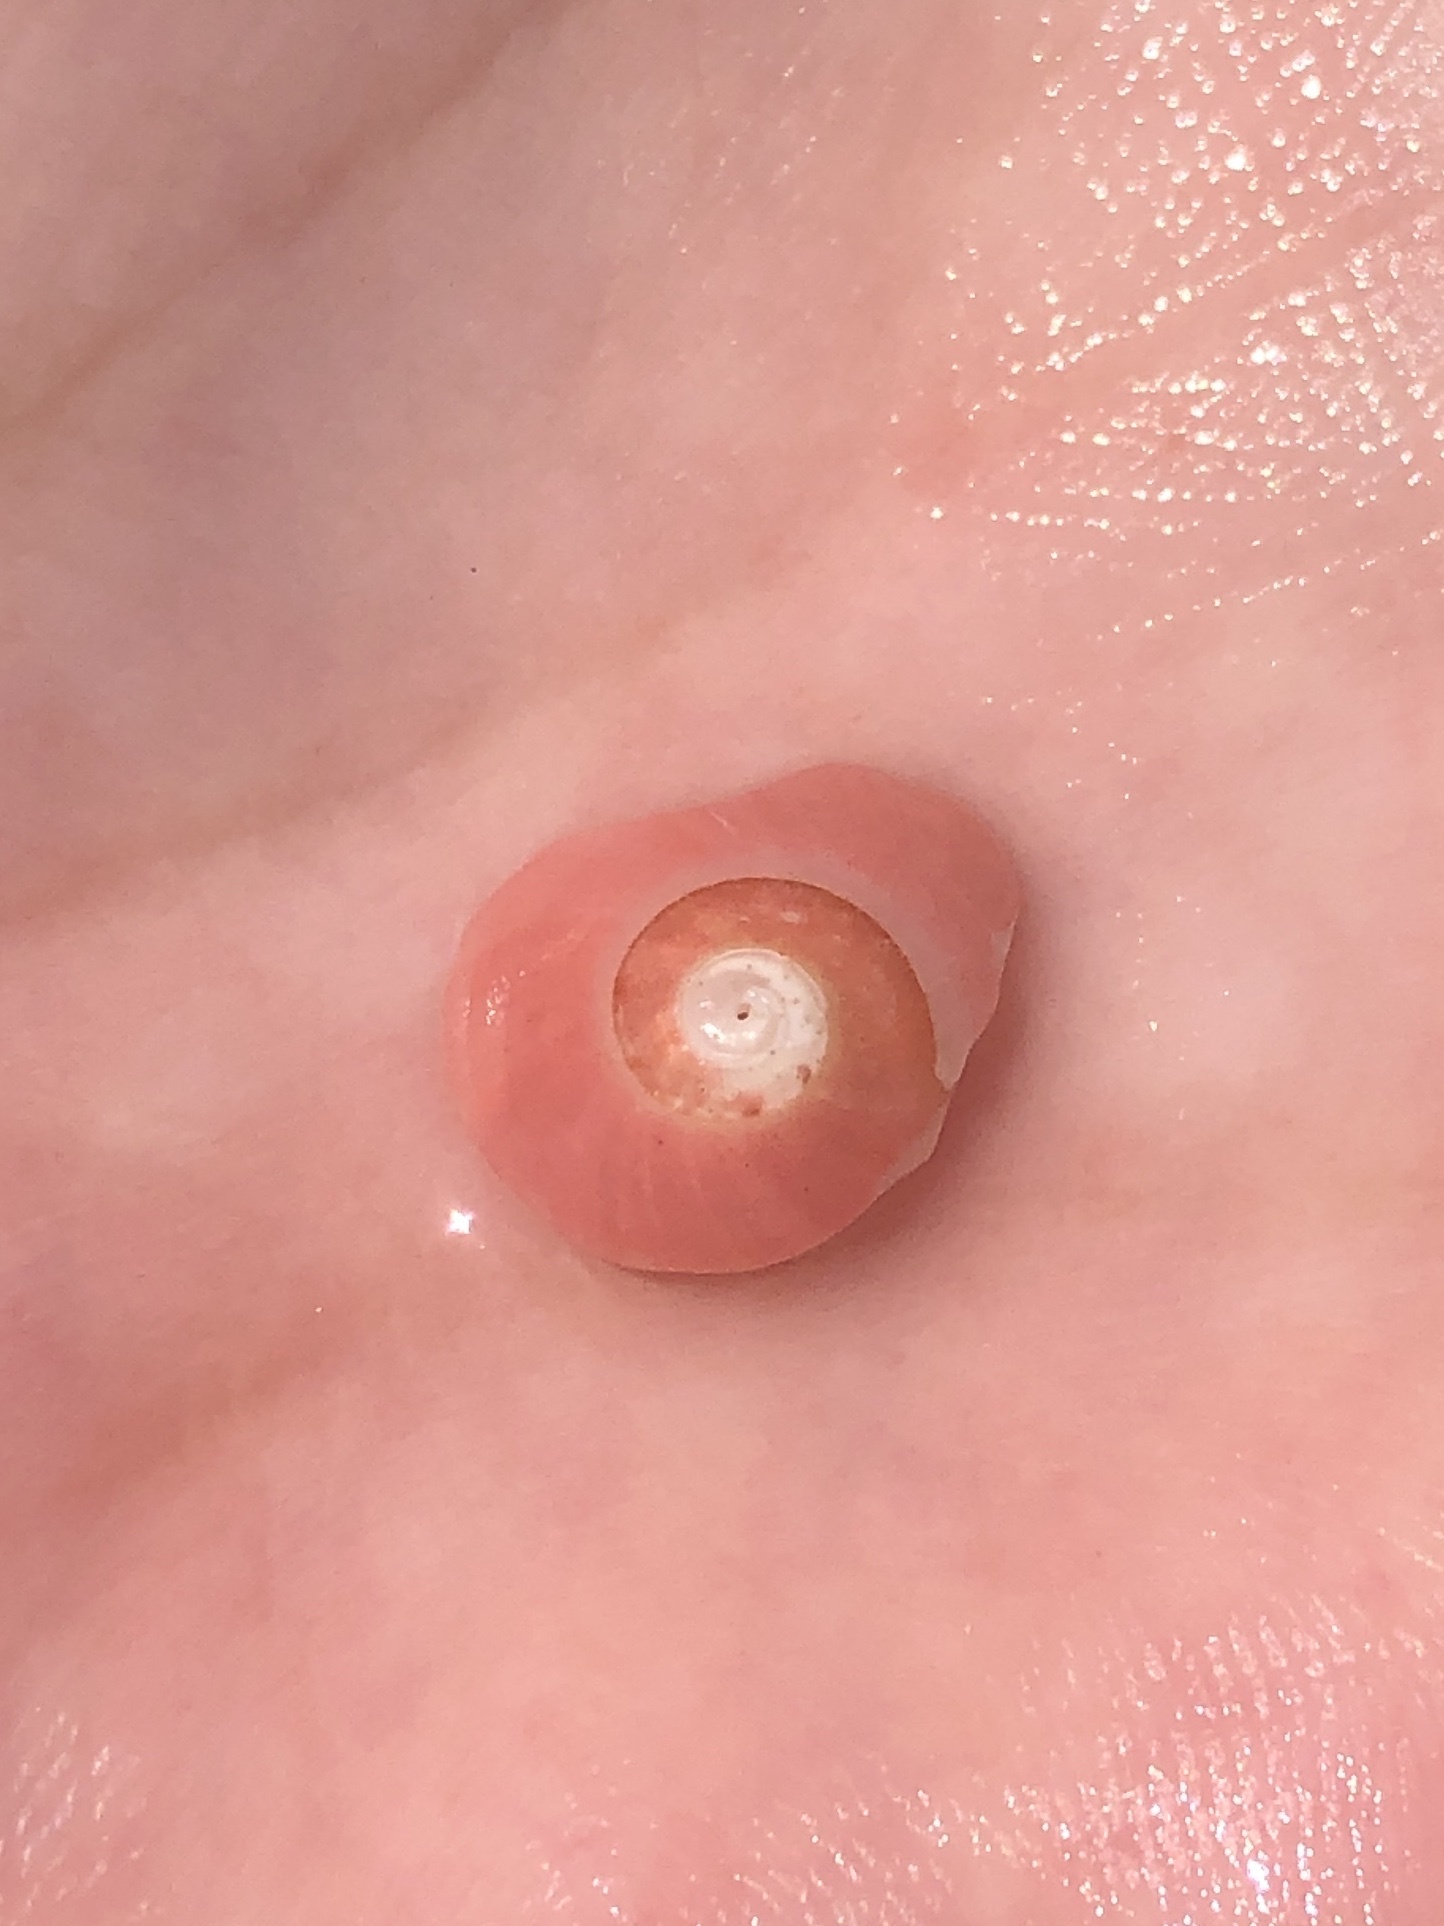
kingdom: Animalia
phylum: Mollusca
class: Gastropoda
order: Trochida
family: Tegulidae
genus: Norrisia
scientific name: Norrisia norrisii
